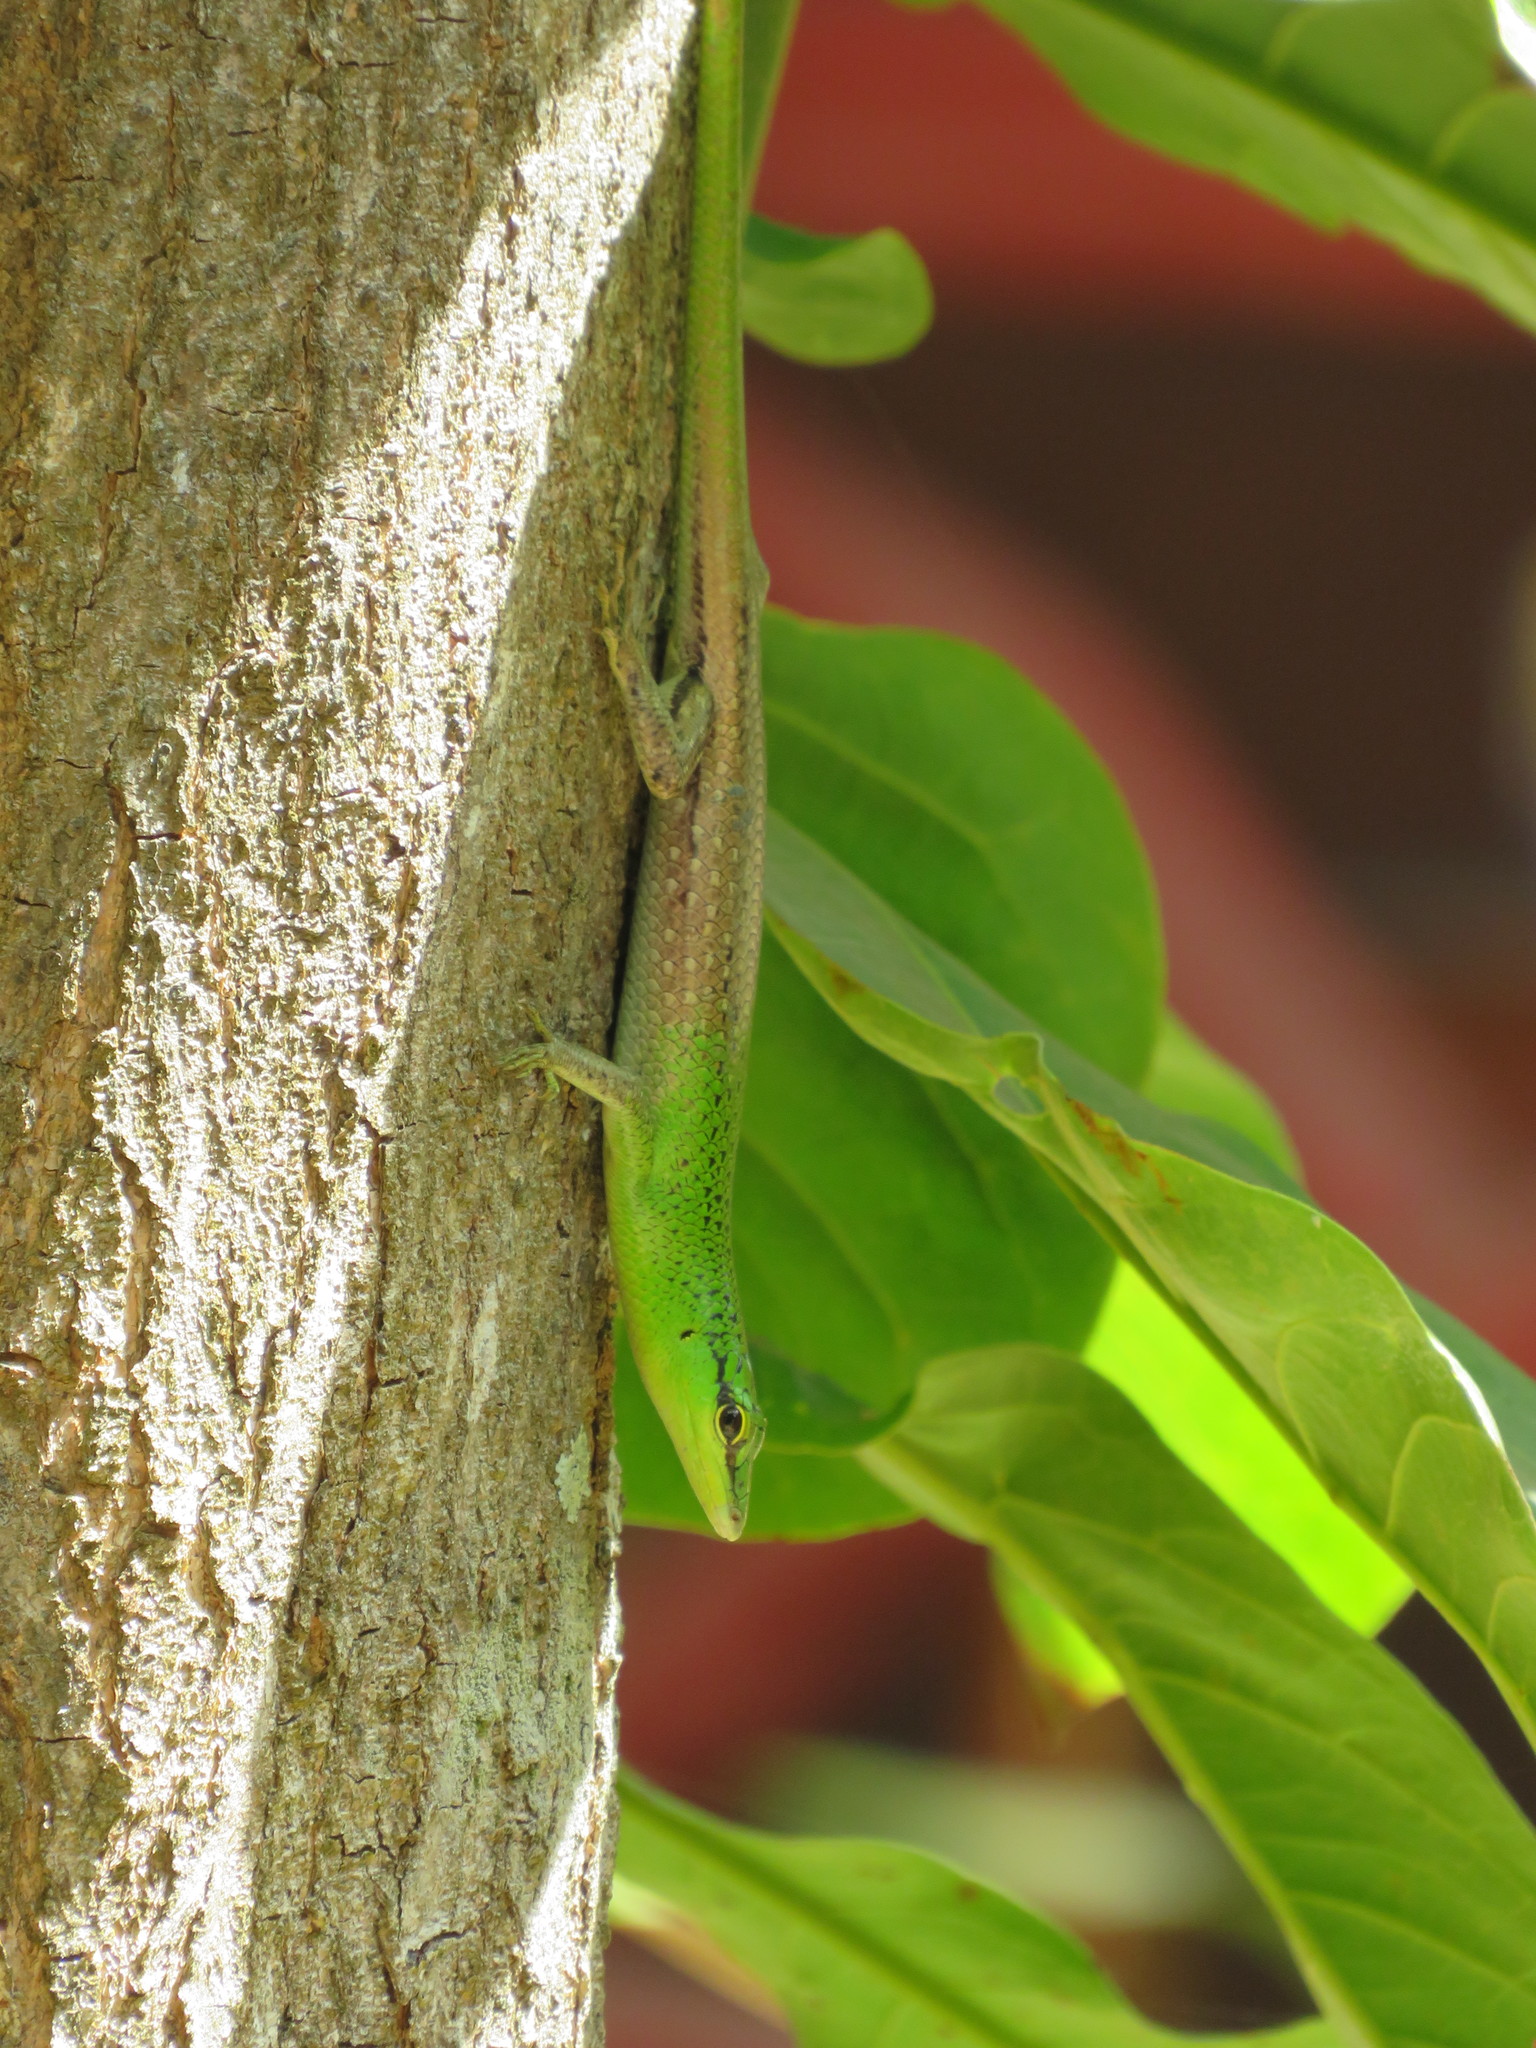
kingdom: Animalia
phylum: Chordata
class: Squamata
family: Scincidae
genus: Lamprolepis
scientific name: Lamprolepis smaragdina
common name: Emerald skink
